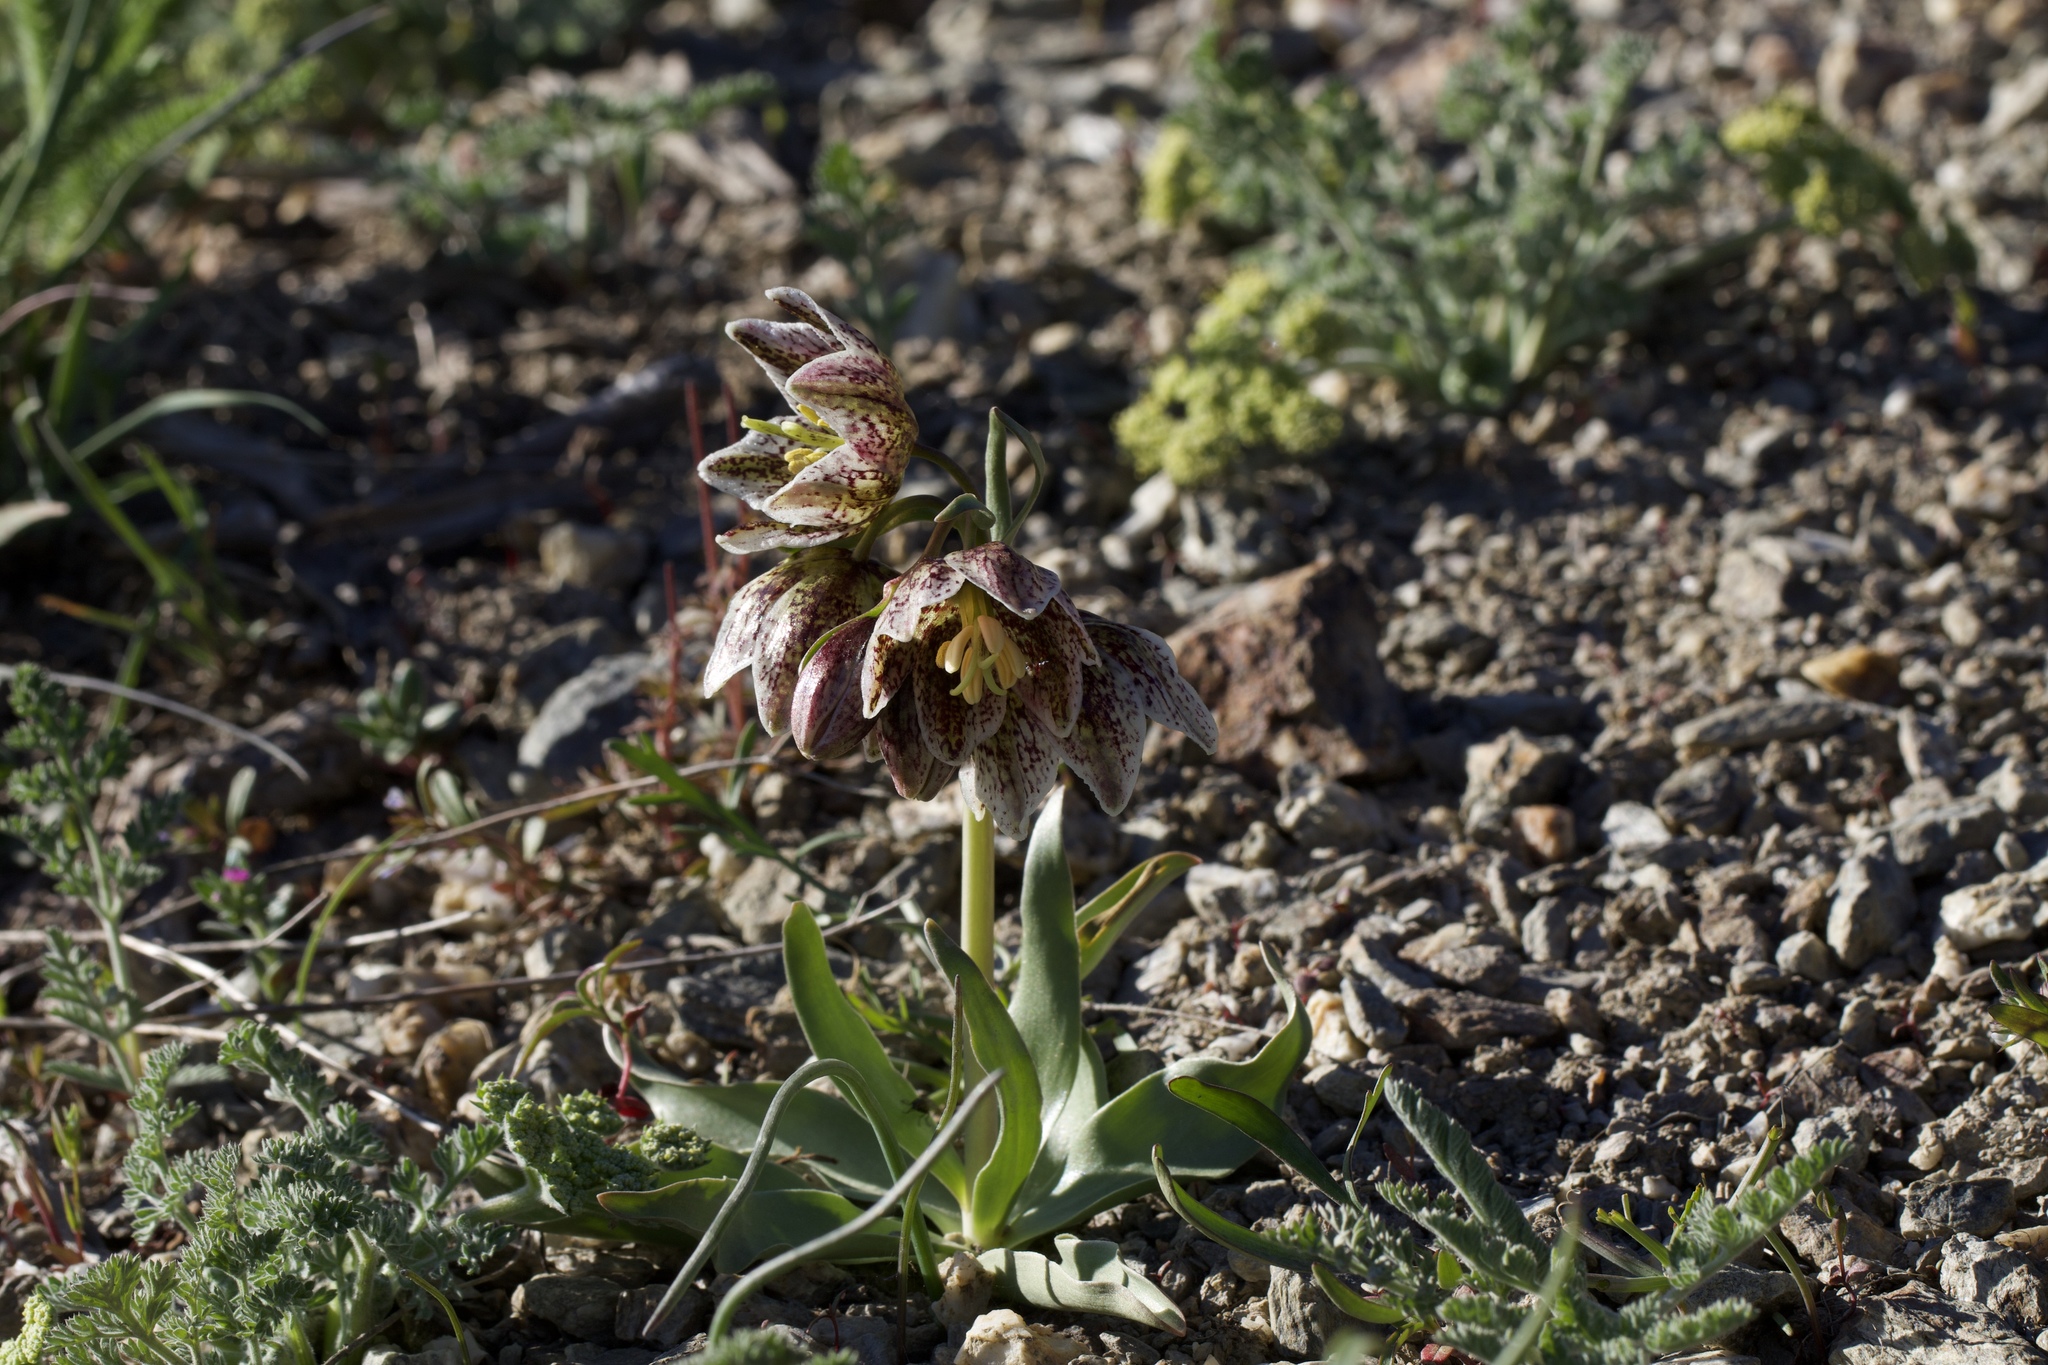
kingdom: Plantae
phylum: Tracheophyta
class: Liliopsida
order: Liliales
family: Liliaceae
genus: Fritillaria
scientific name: Fritillaria purdyi
